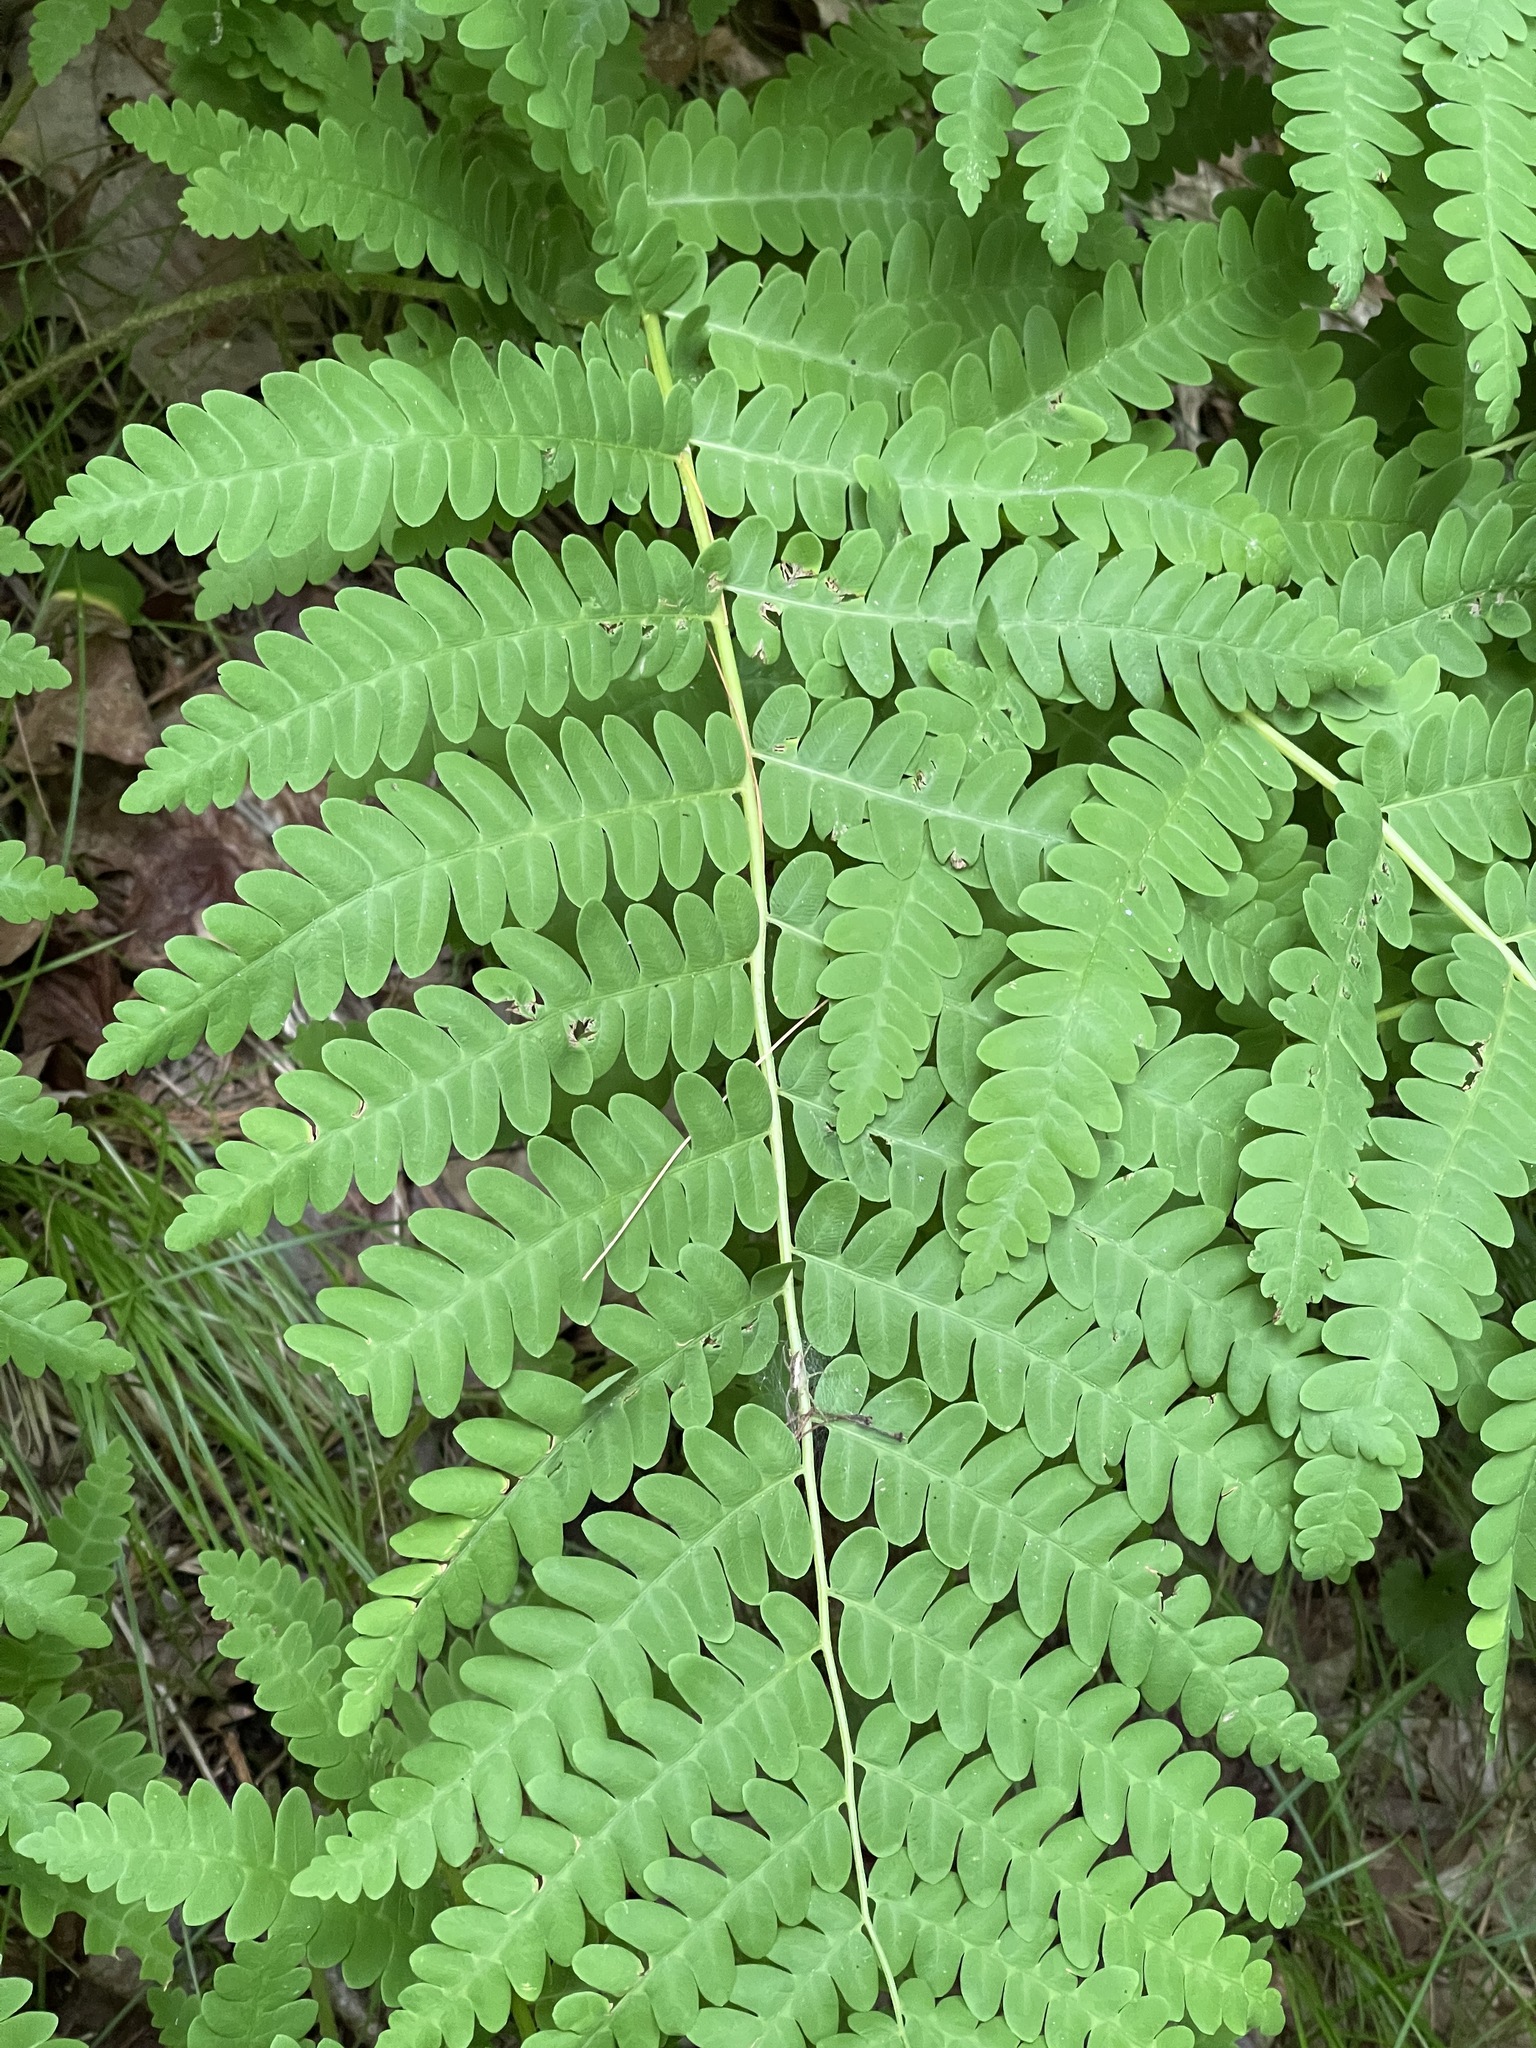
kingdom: Plantae
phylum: Tracheophyta
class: Polypodiopsida
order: Osmundales
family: Osmundaceae
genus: Claytosmunda
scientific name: Claytosmunda claytoniana
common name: Clayton's fern
